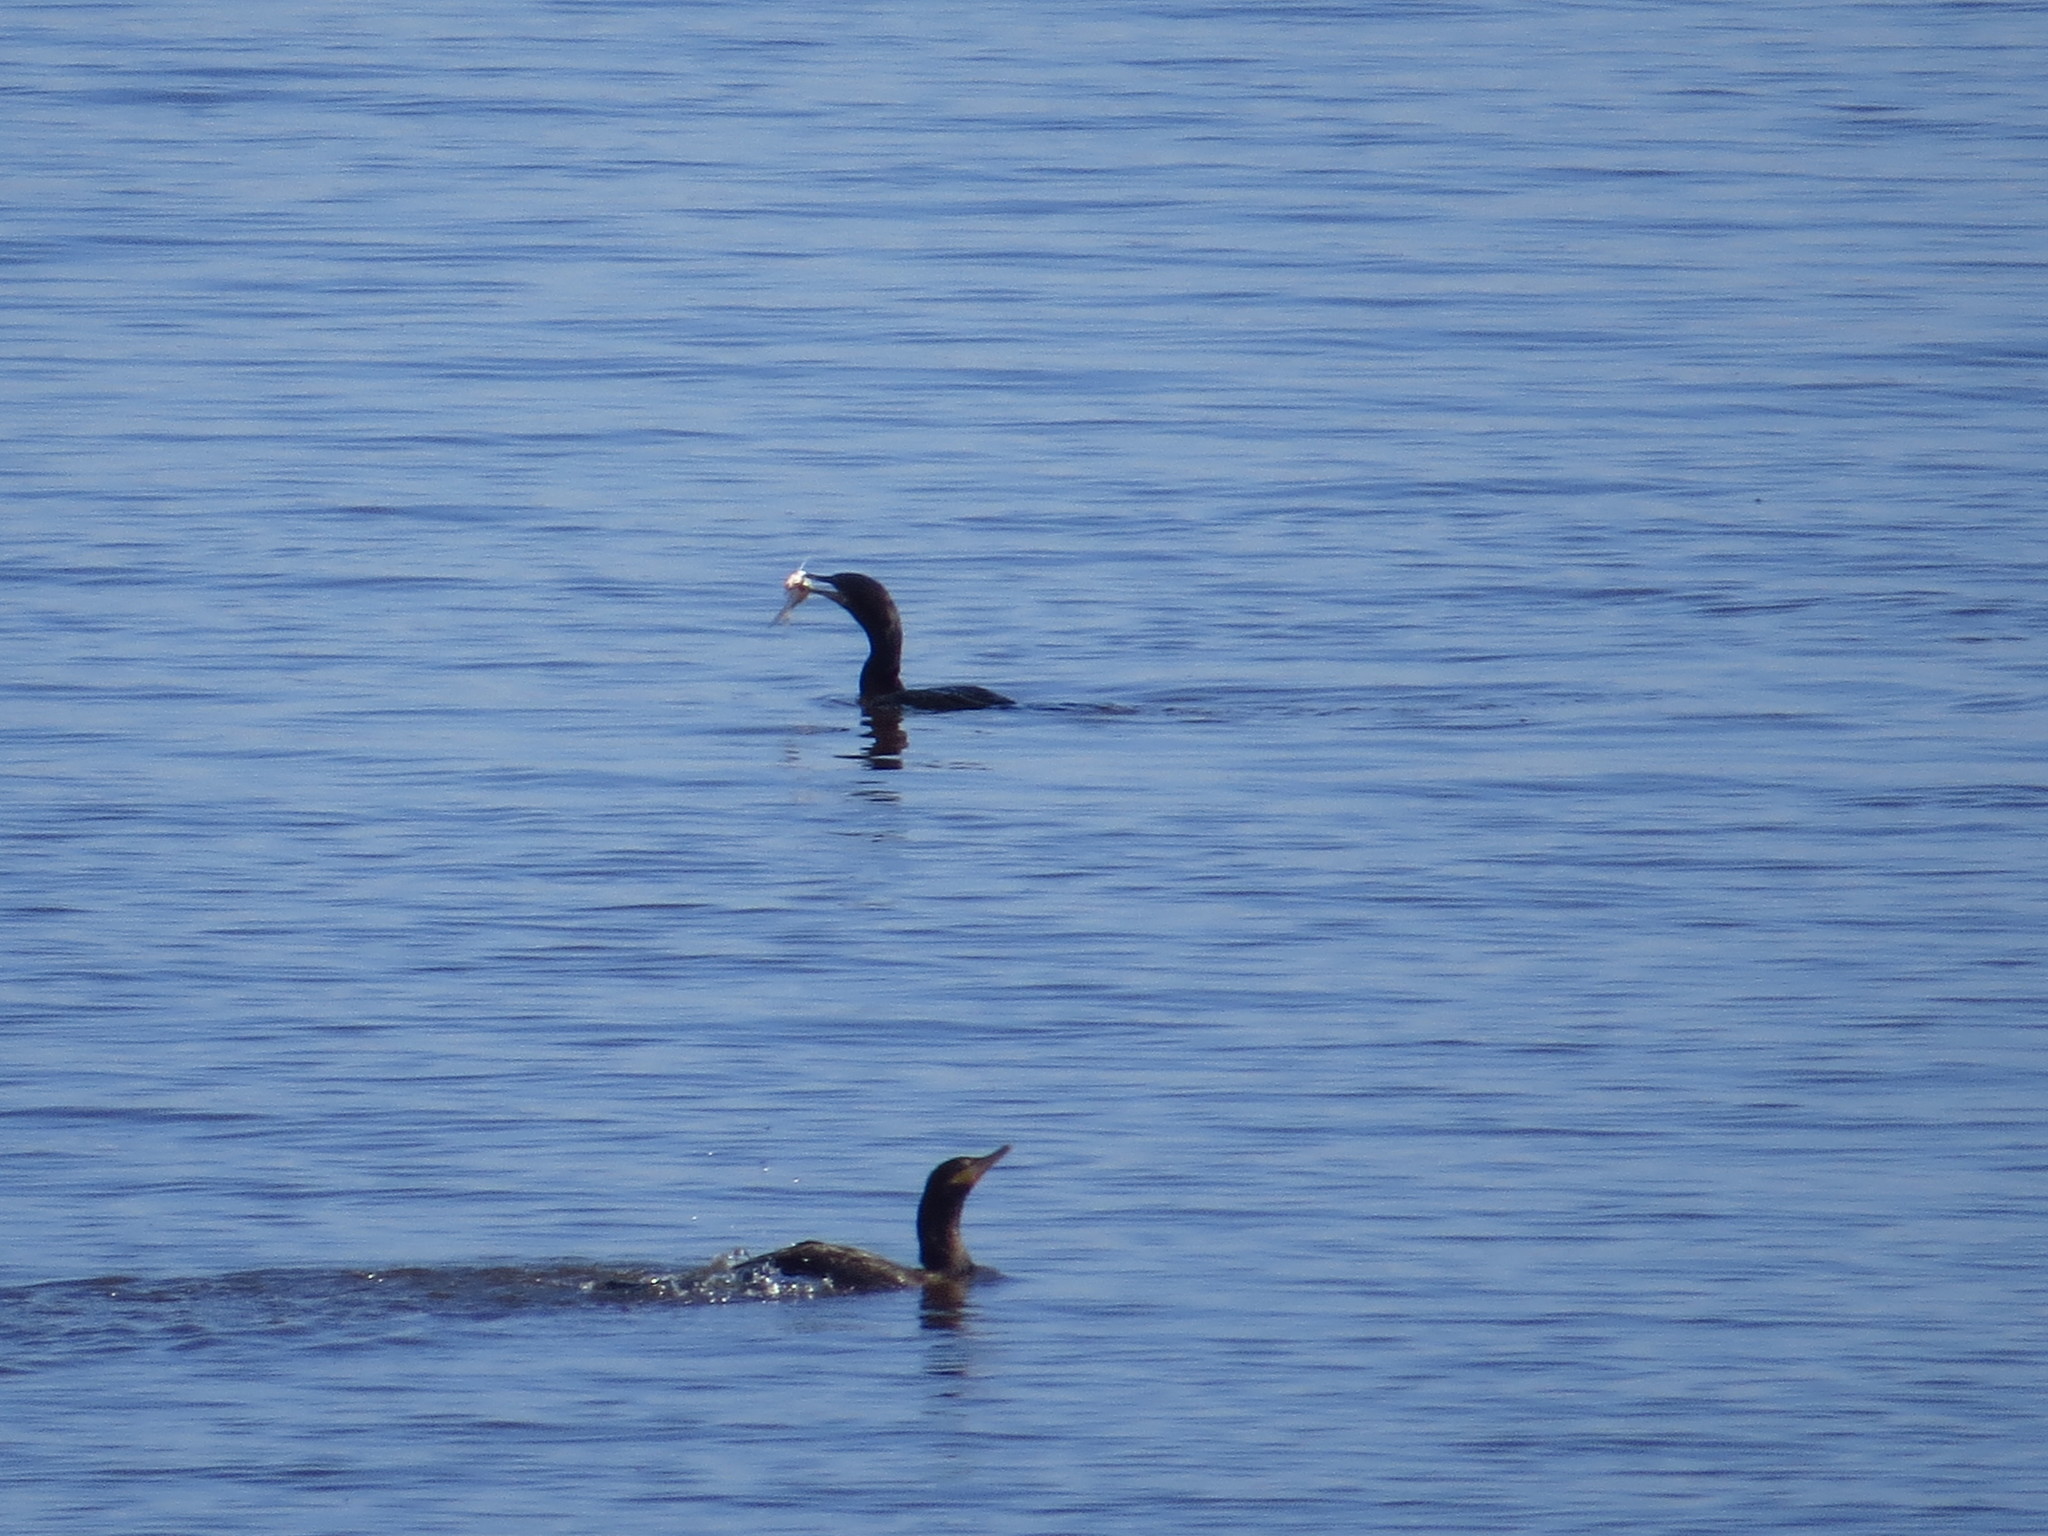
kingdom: Animalia
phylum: Chordata
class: Aves
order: Suliformes
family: Phalacrocoracidae
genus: Phalacrocorax
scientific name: Phalacrocorax brasilianus
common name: Neotropic cormorant
